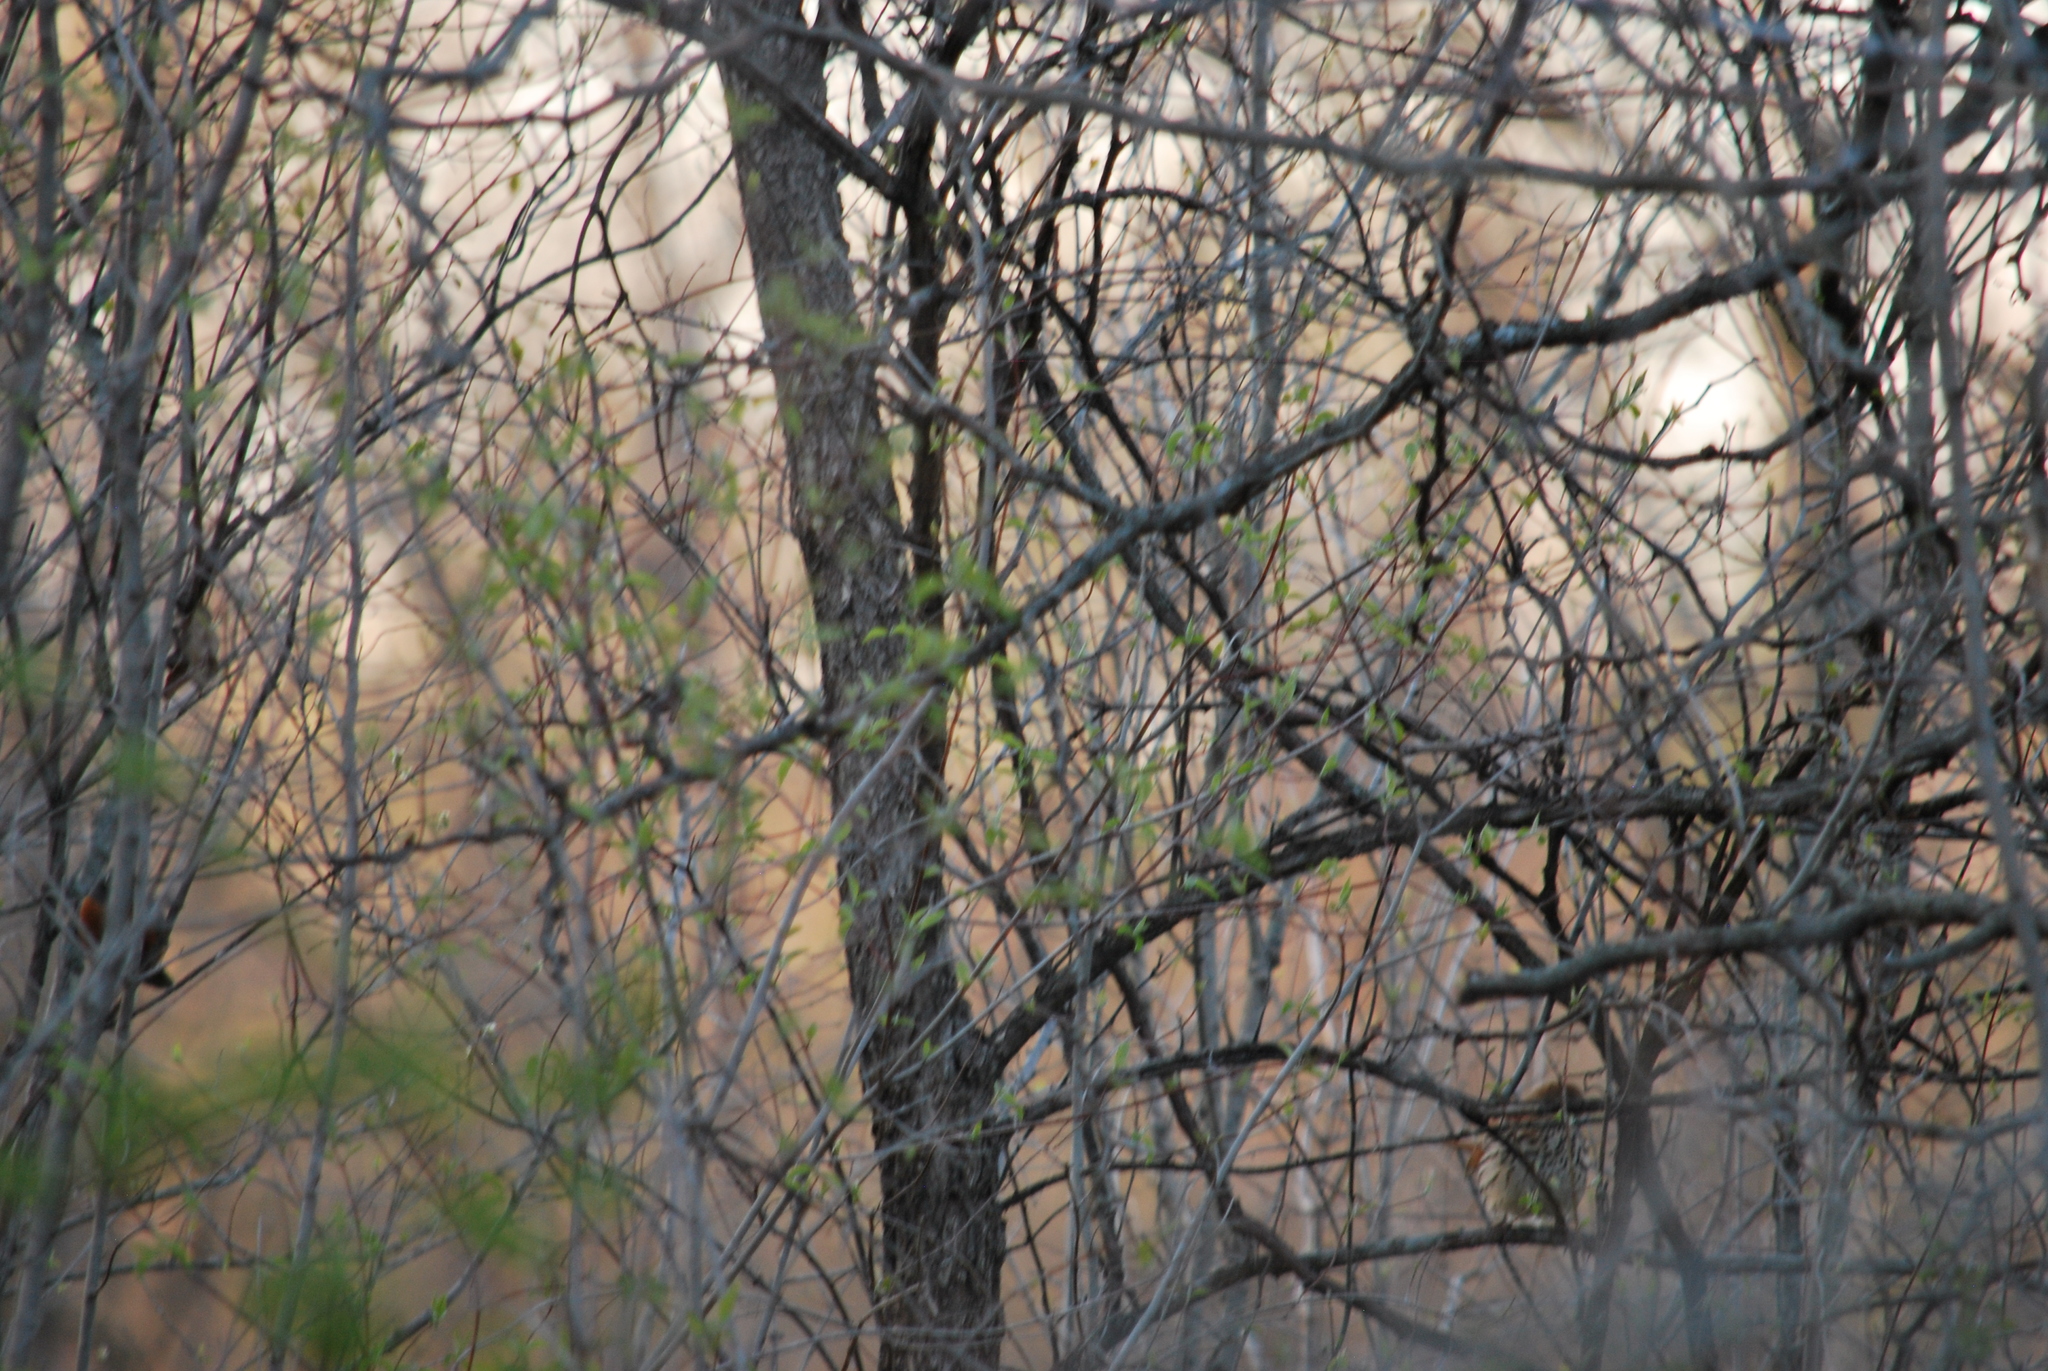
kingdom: Animalia
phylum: Chordata
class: Aves
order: Passeriformes
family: Mimidae
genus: Toxostoma
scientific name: Toxostoma rufum
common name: Brown thrasher
